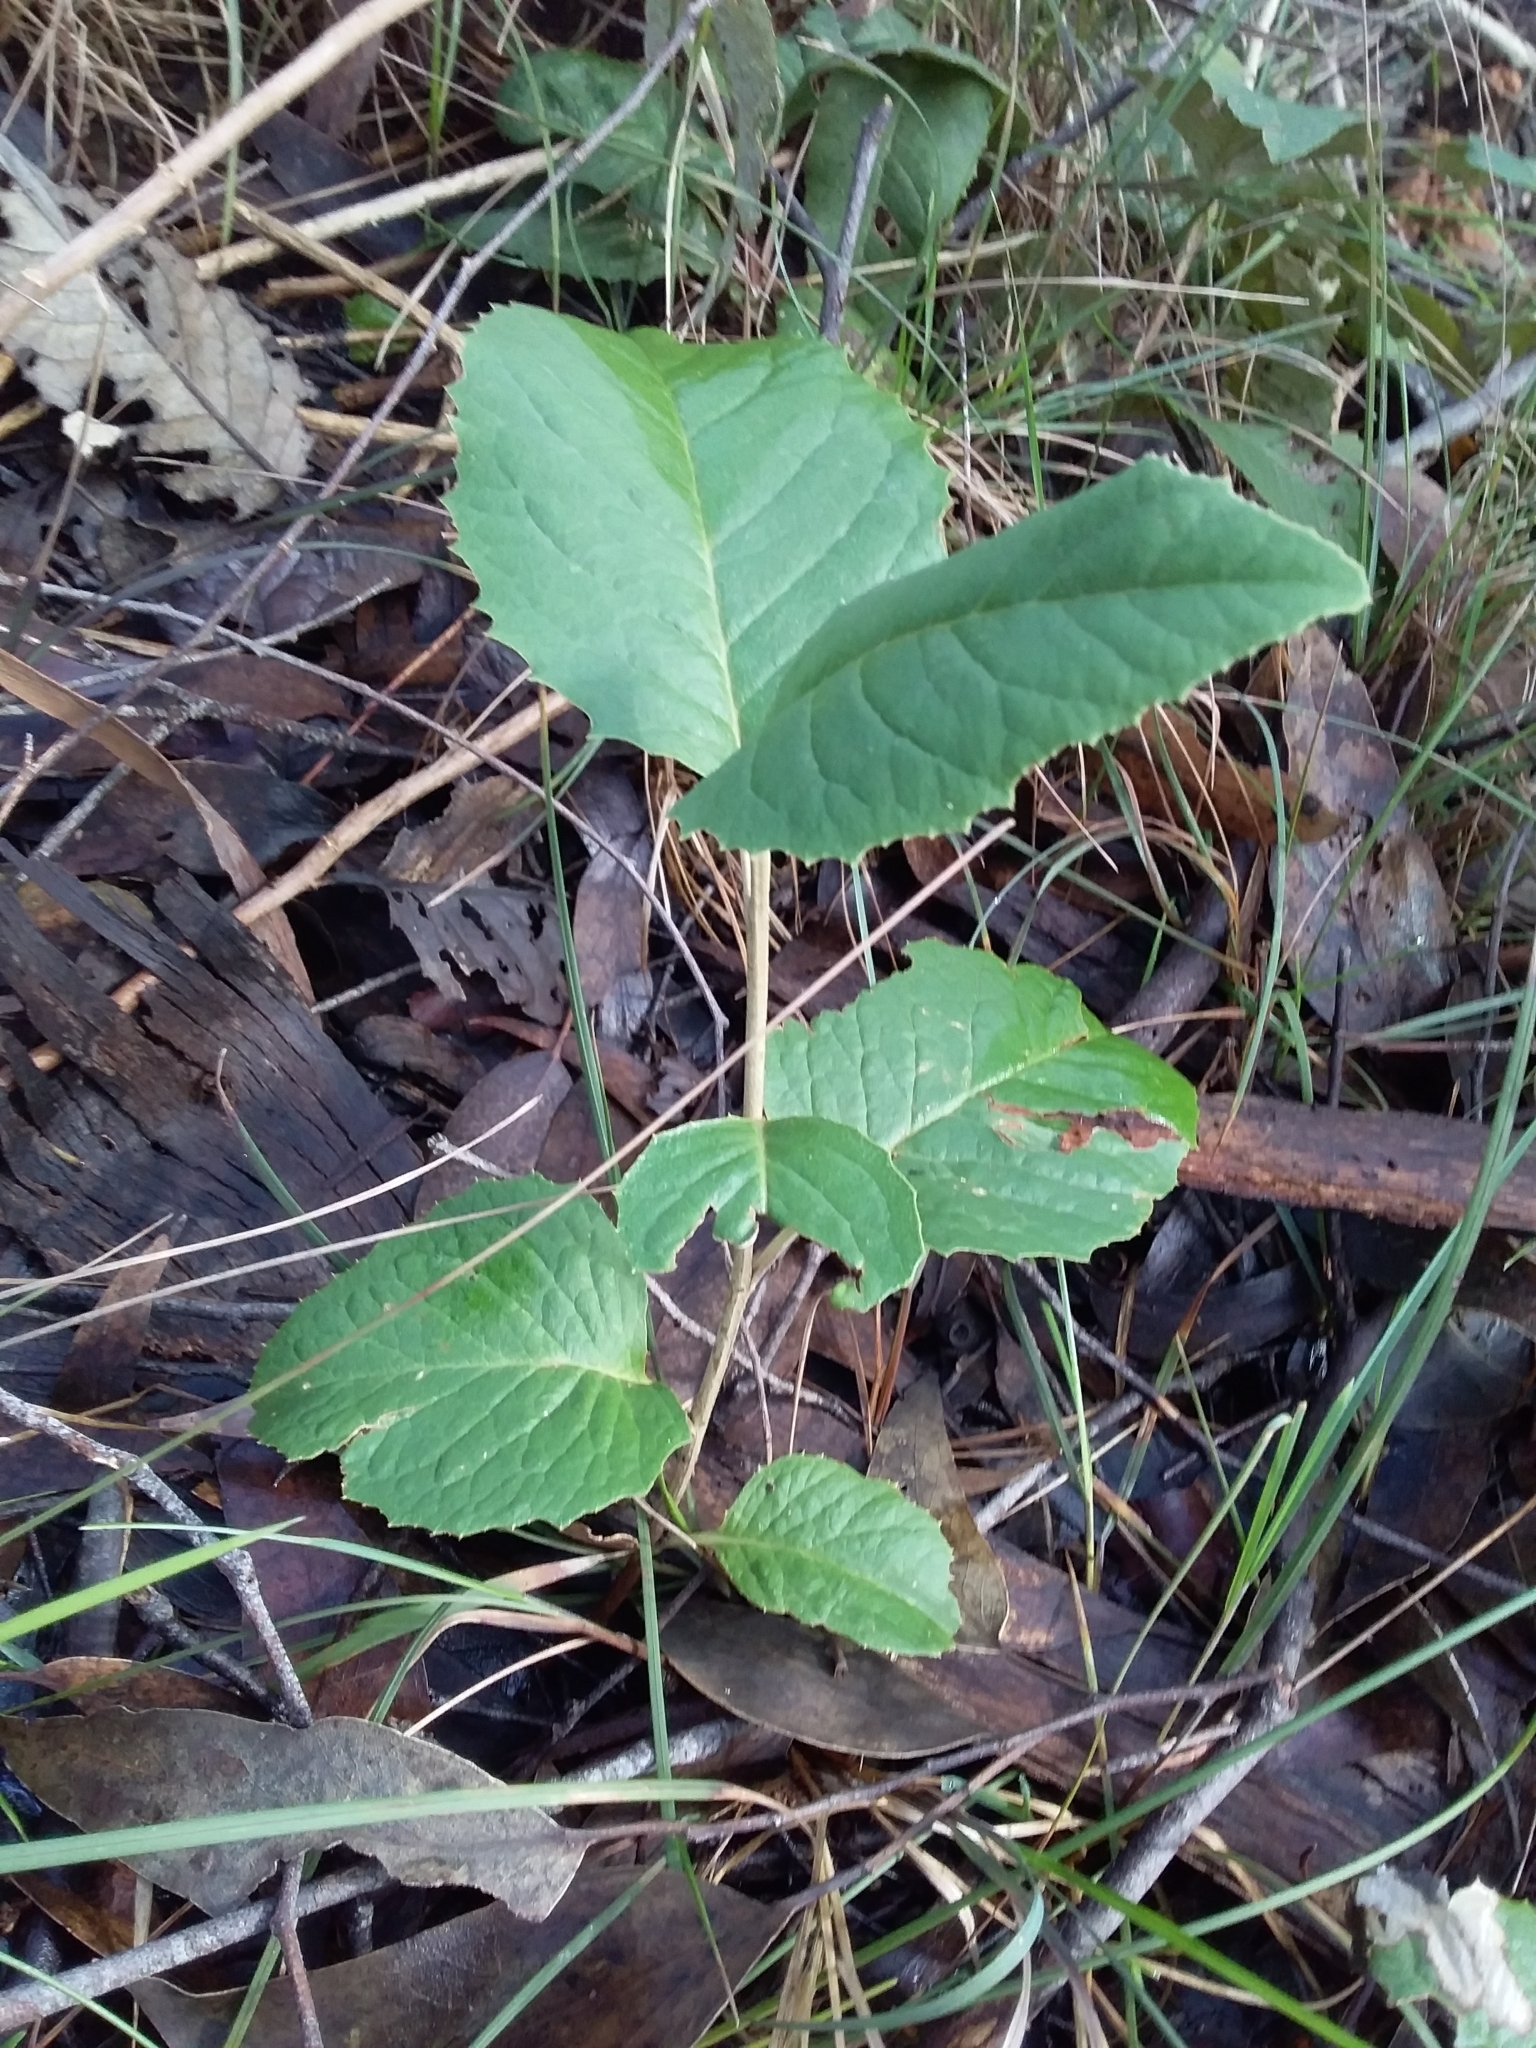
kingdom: Plantae
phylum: Tracheophyta
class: Magnoliopsida
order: Asterales
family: Asteraceae
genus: Olearia
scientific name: Olearia grandiflora
